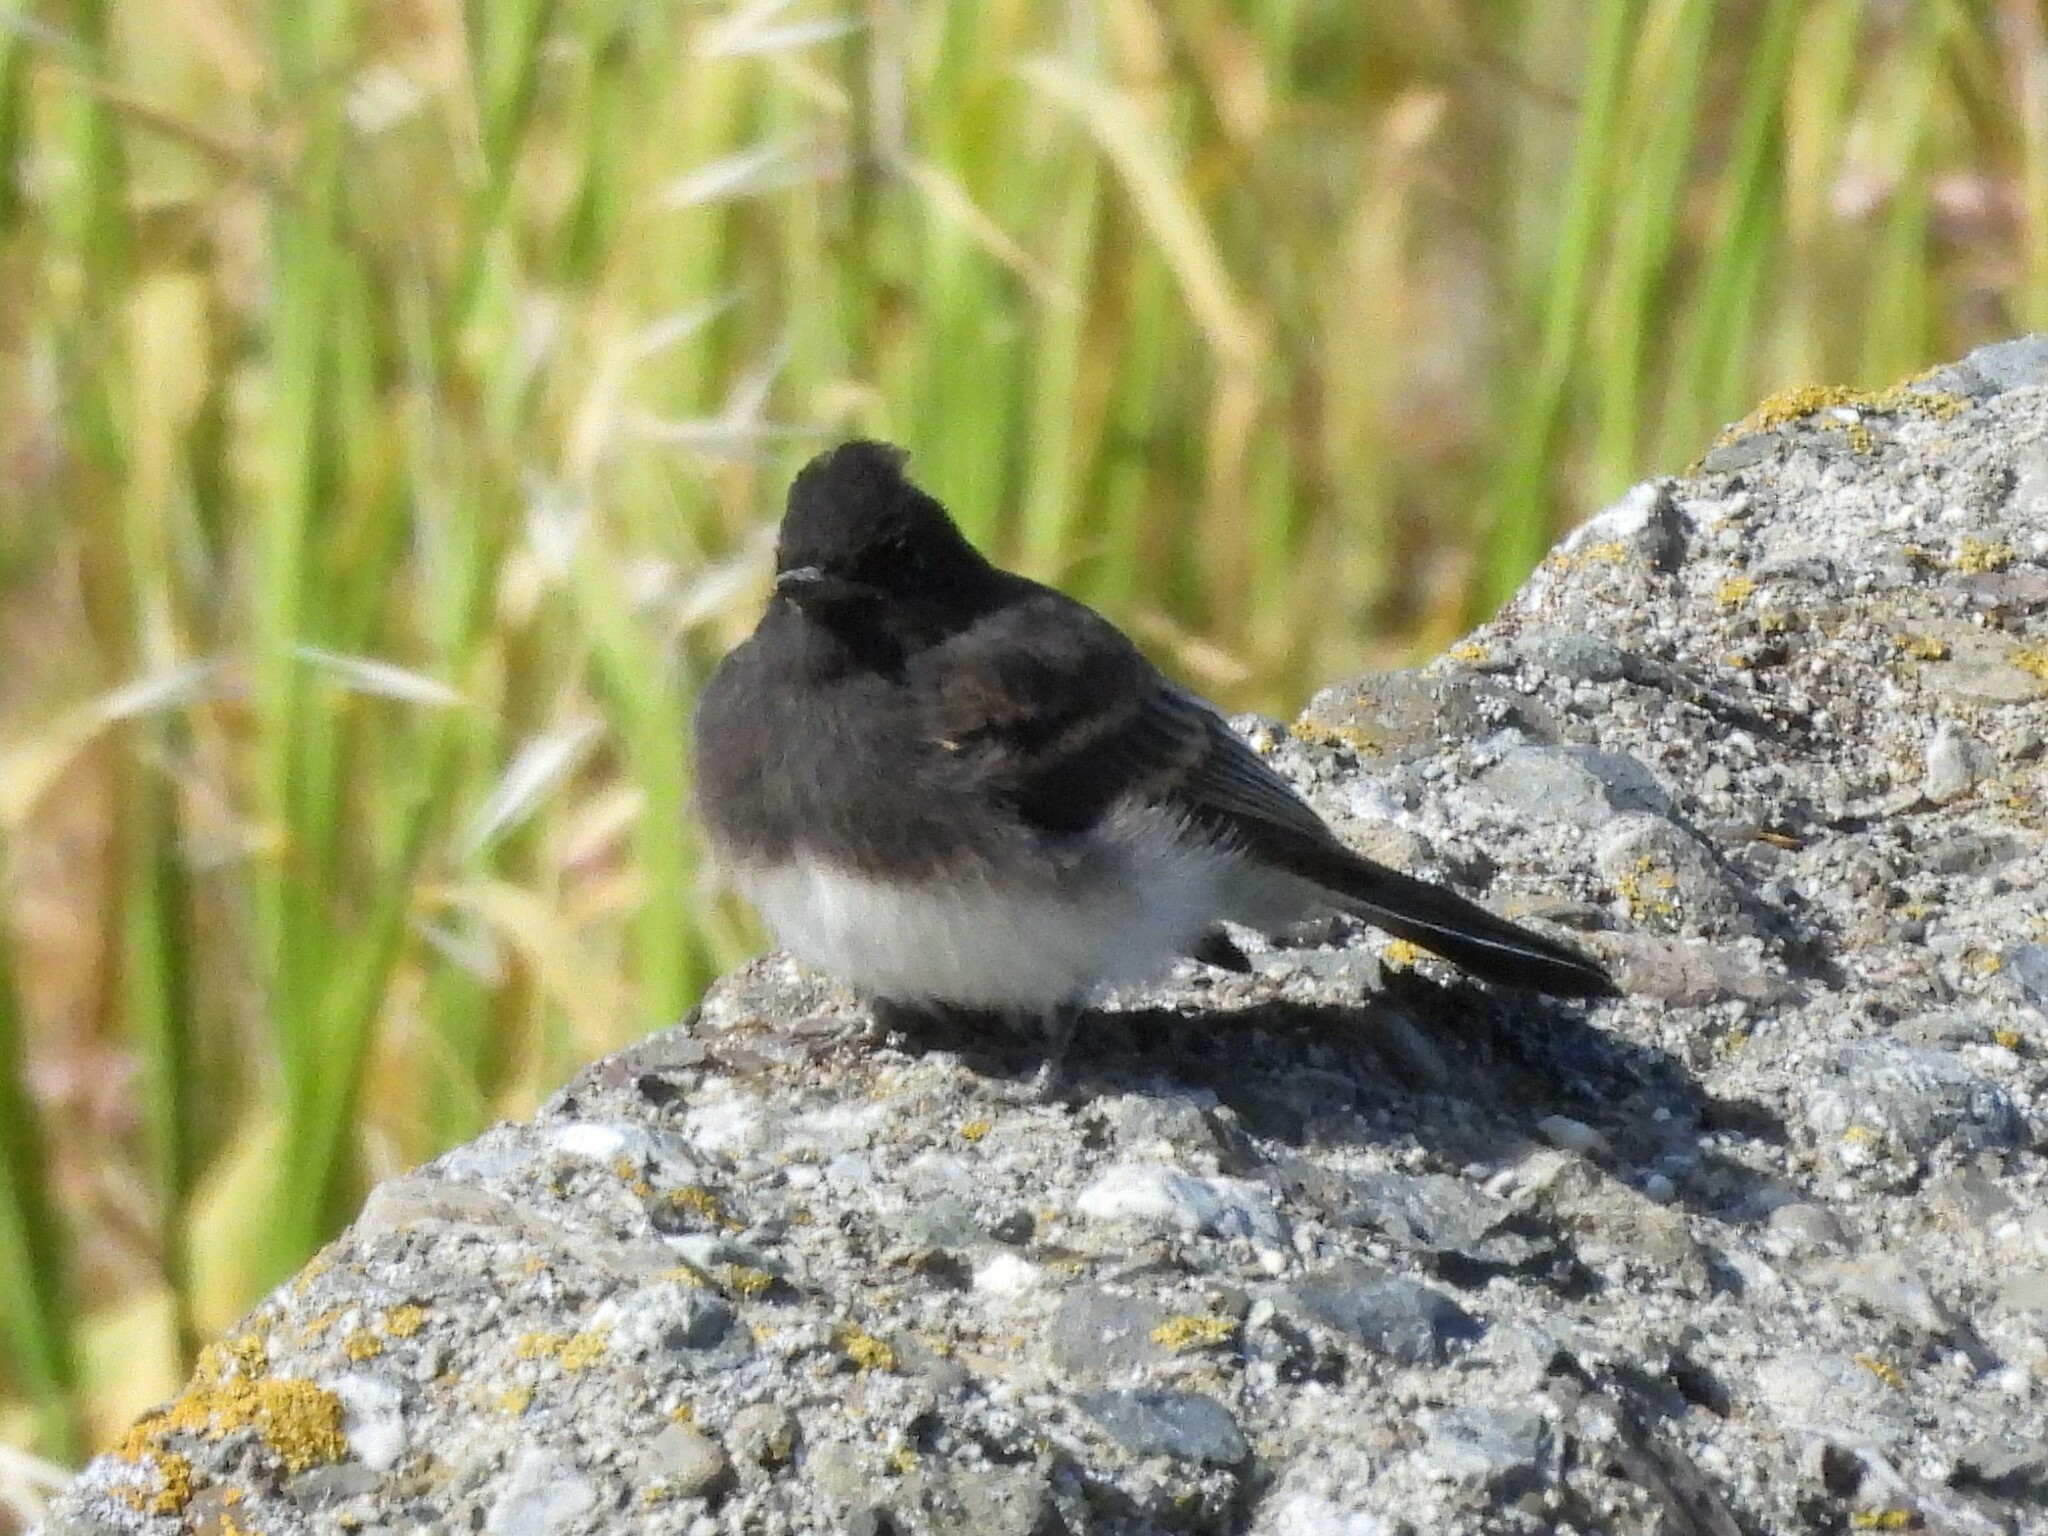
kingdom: Animalia
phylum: Chordata
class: Aves
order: Passeriformes
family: Tyrannidae
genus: Sayornis
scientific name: Sayornis nigricans
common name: Black phoebe
